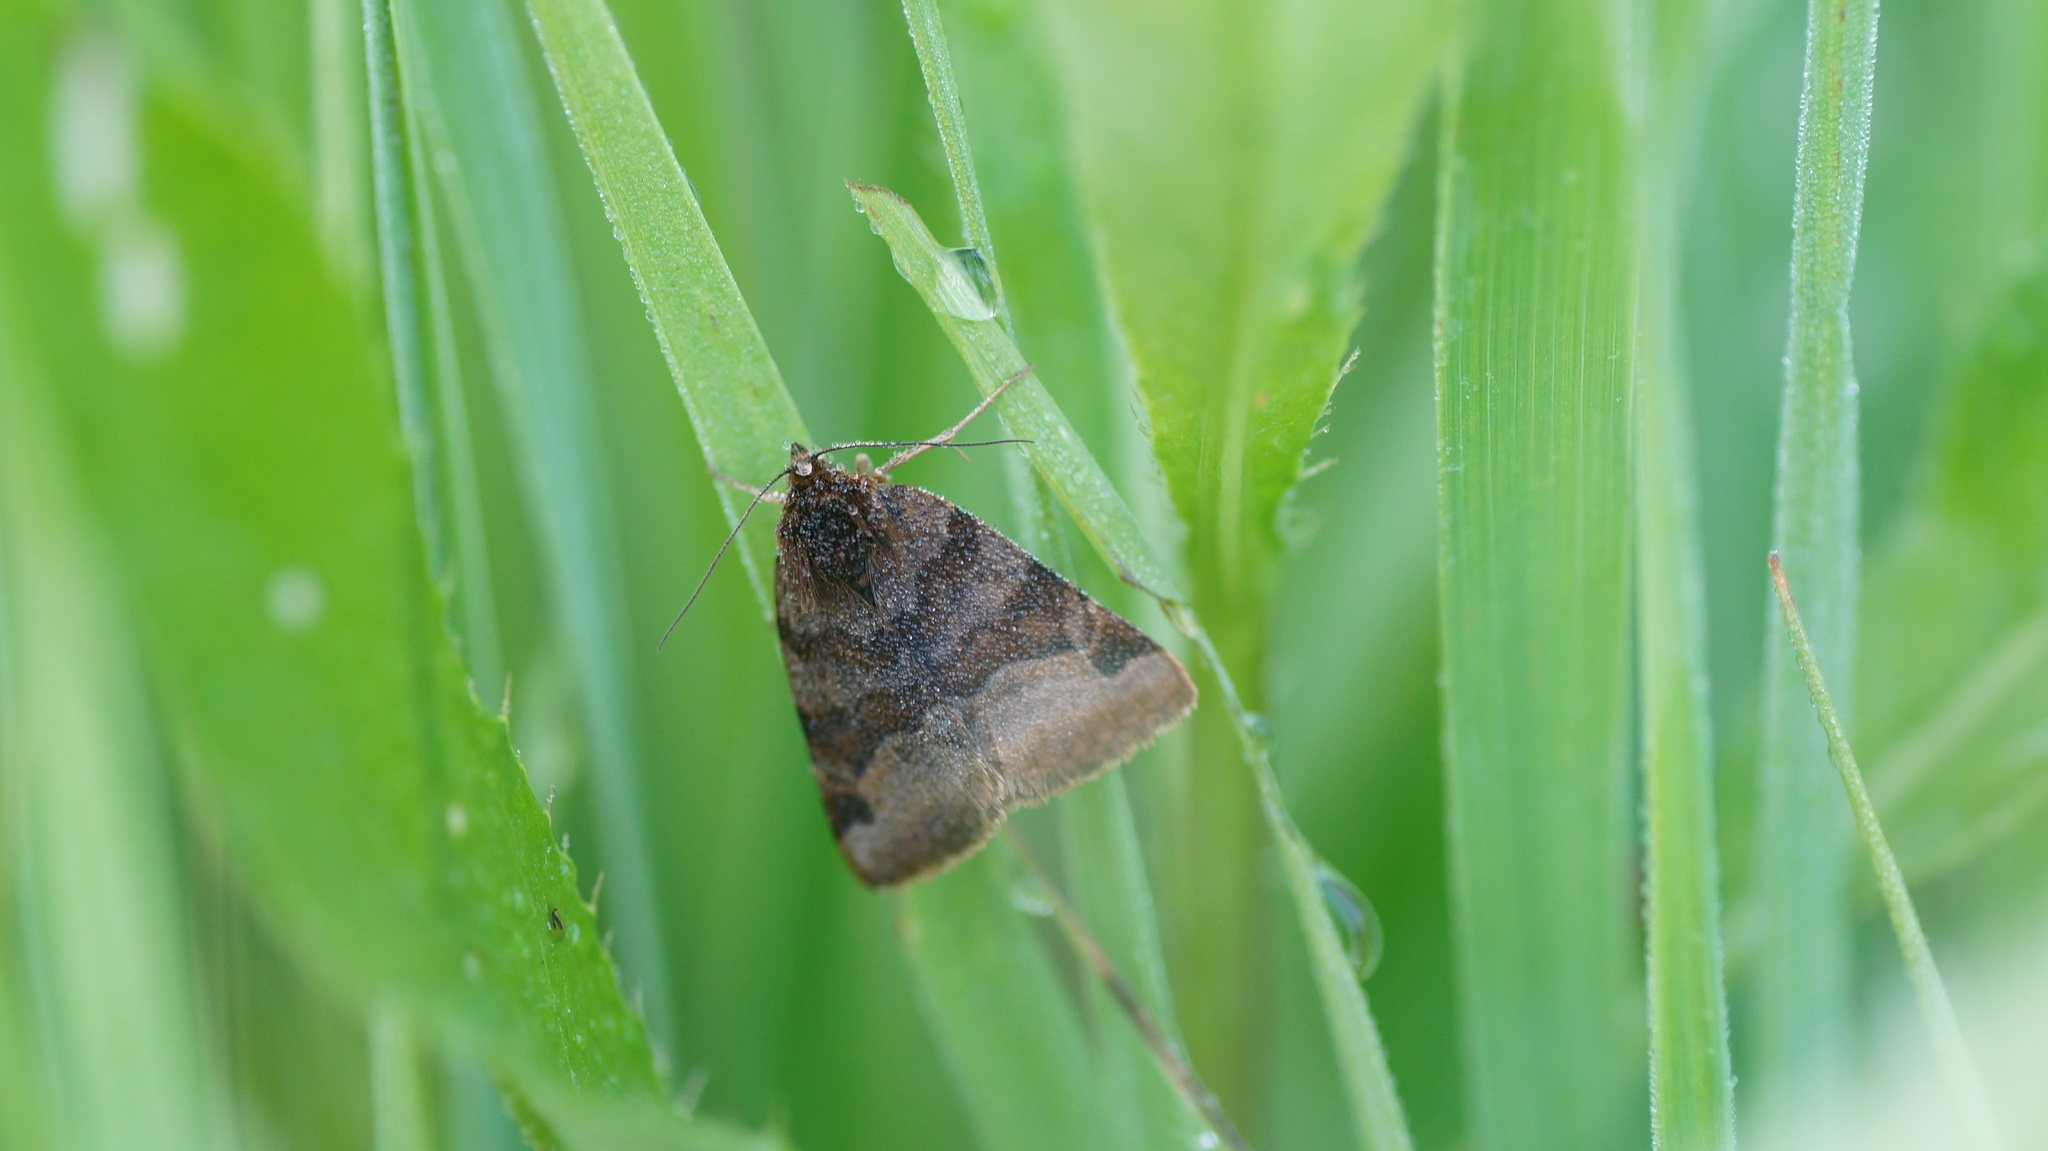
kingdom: Animalia
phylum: Arthropoda
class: Insecta
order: Lepidoptera
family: Erebidae
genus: Euclidia
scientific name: Euclidia glyphica
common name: Burnet companion
